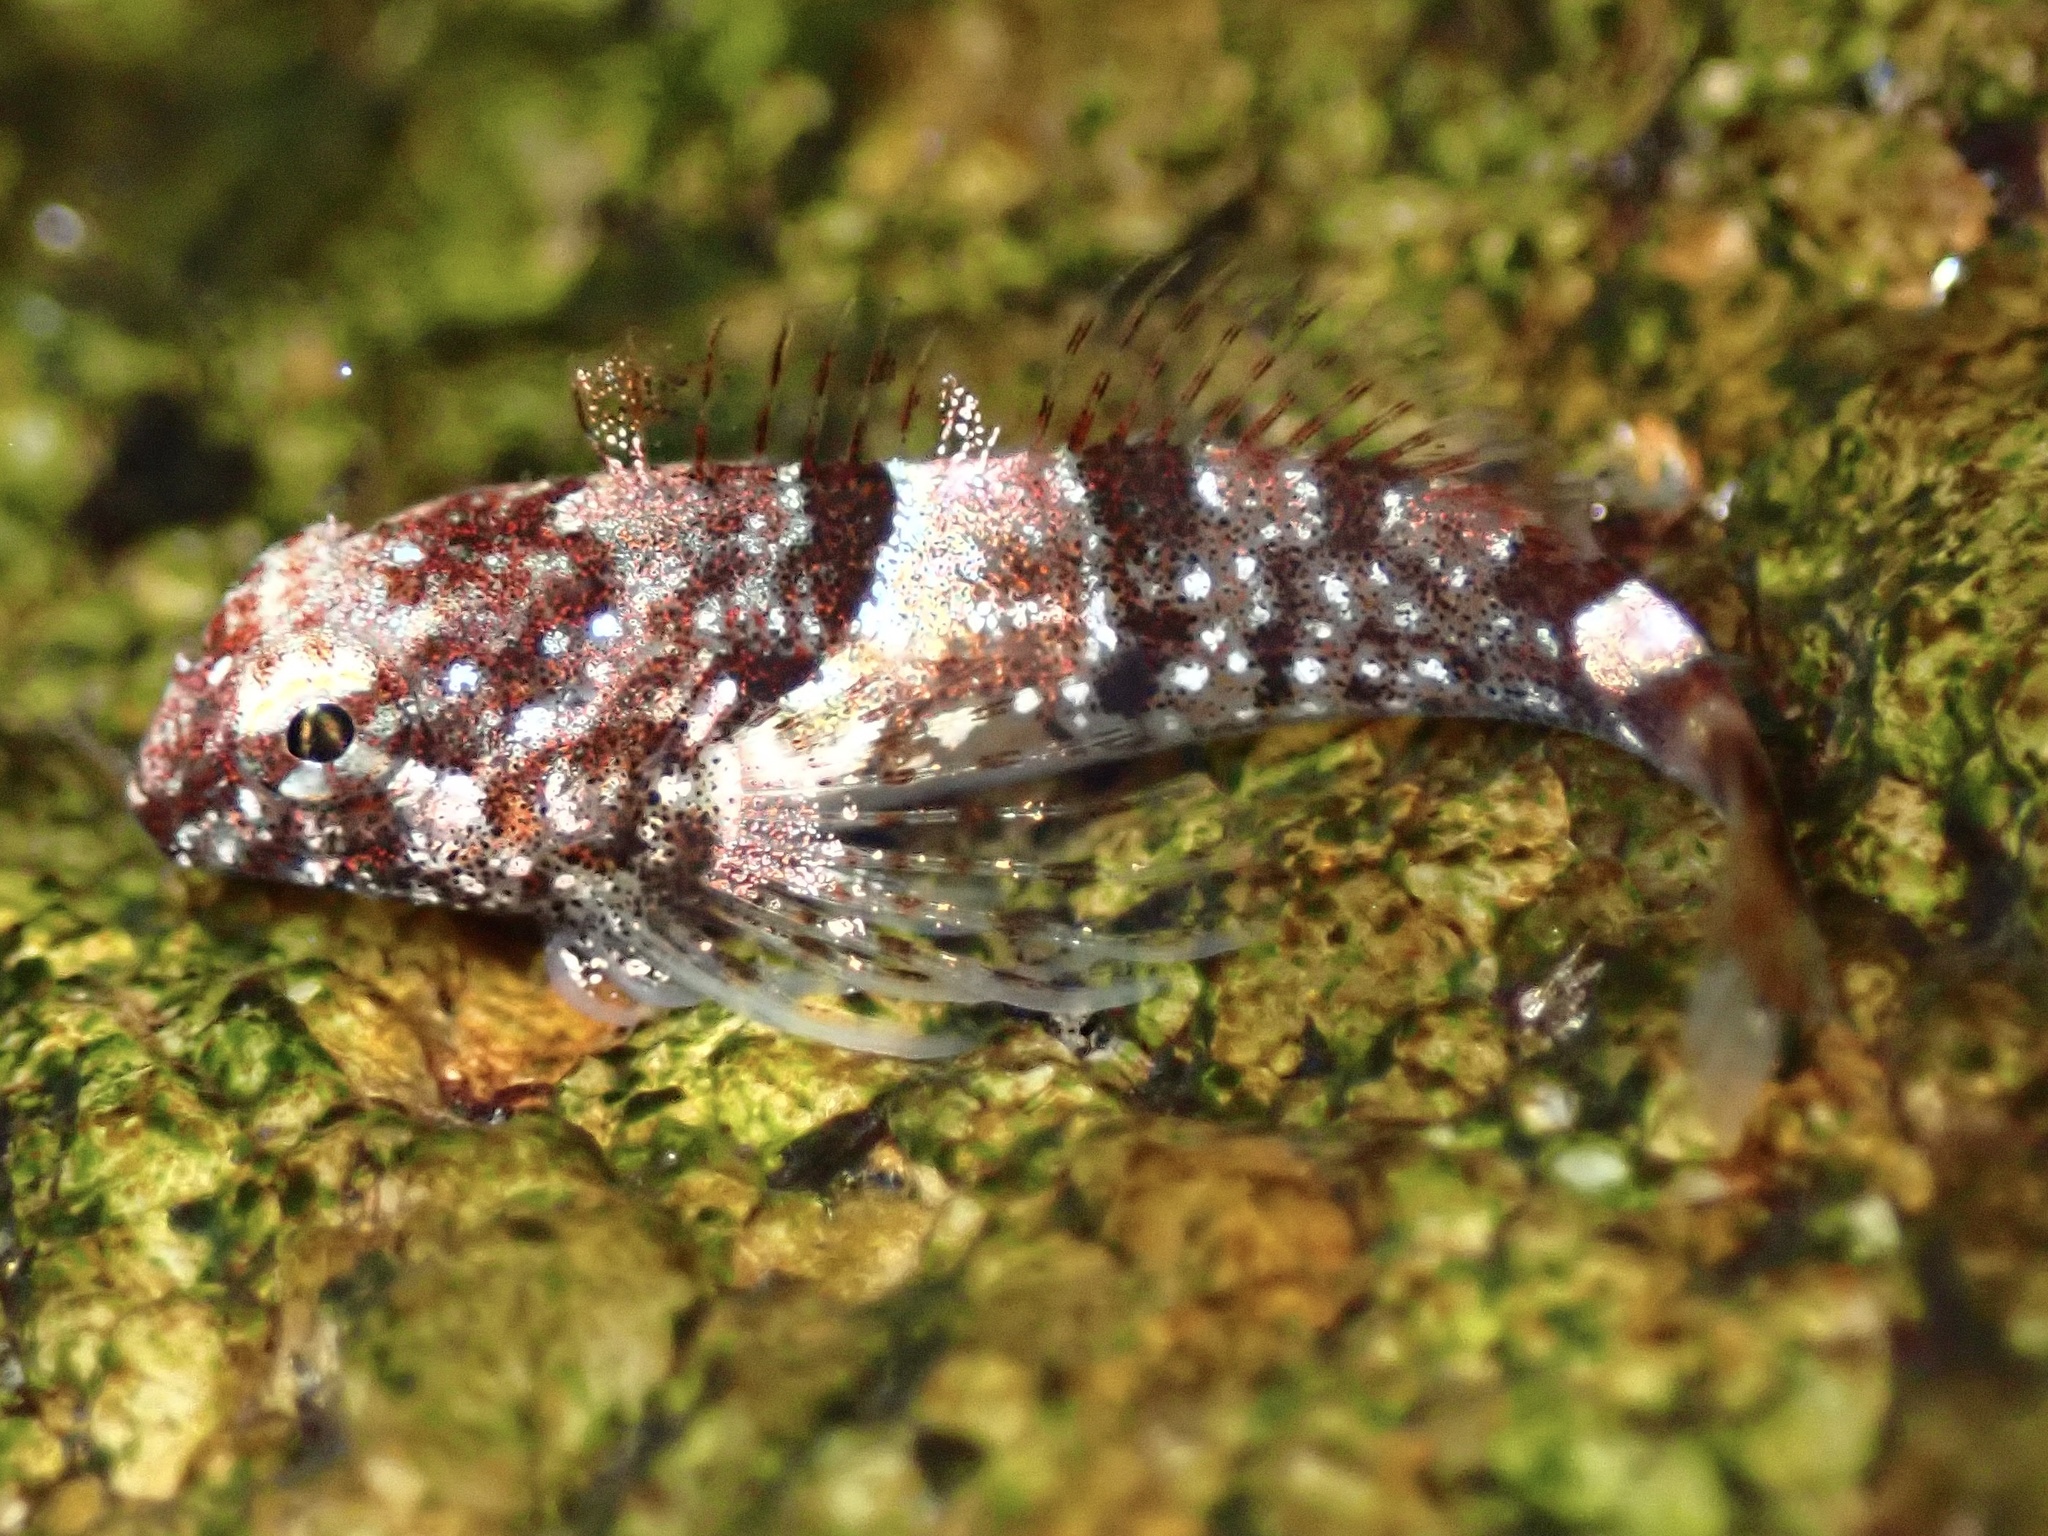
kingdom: Animalia
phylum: Chordata
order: Scorpaeniformes
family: Cottidae
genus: Clinocottus
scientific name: Clinocottus analis
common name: Woolly sculpin
